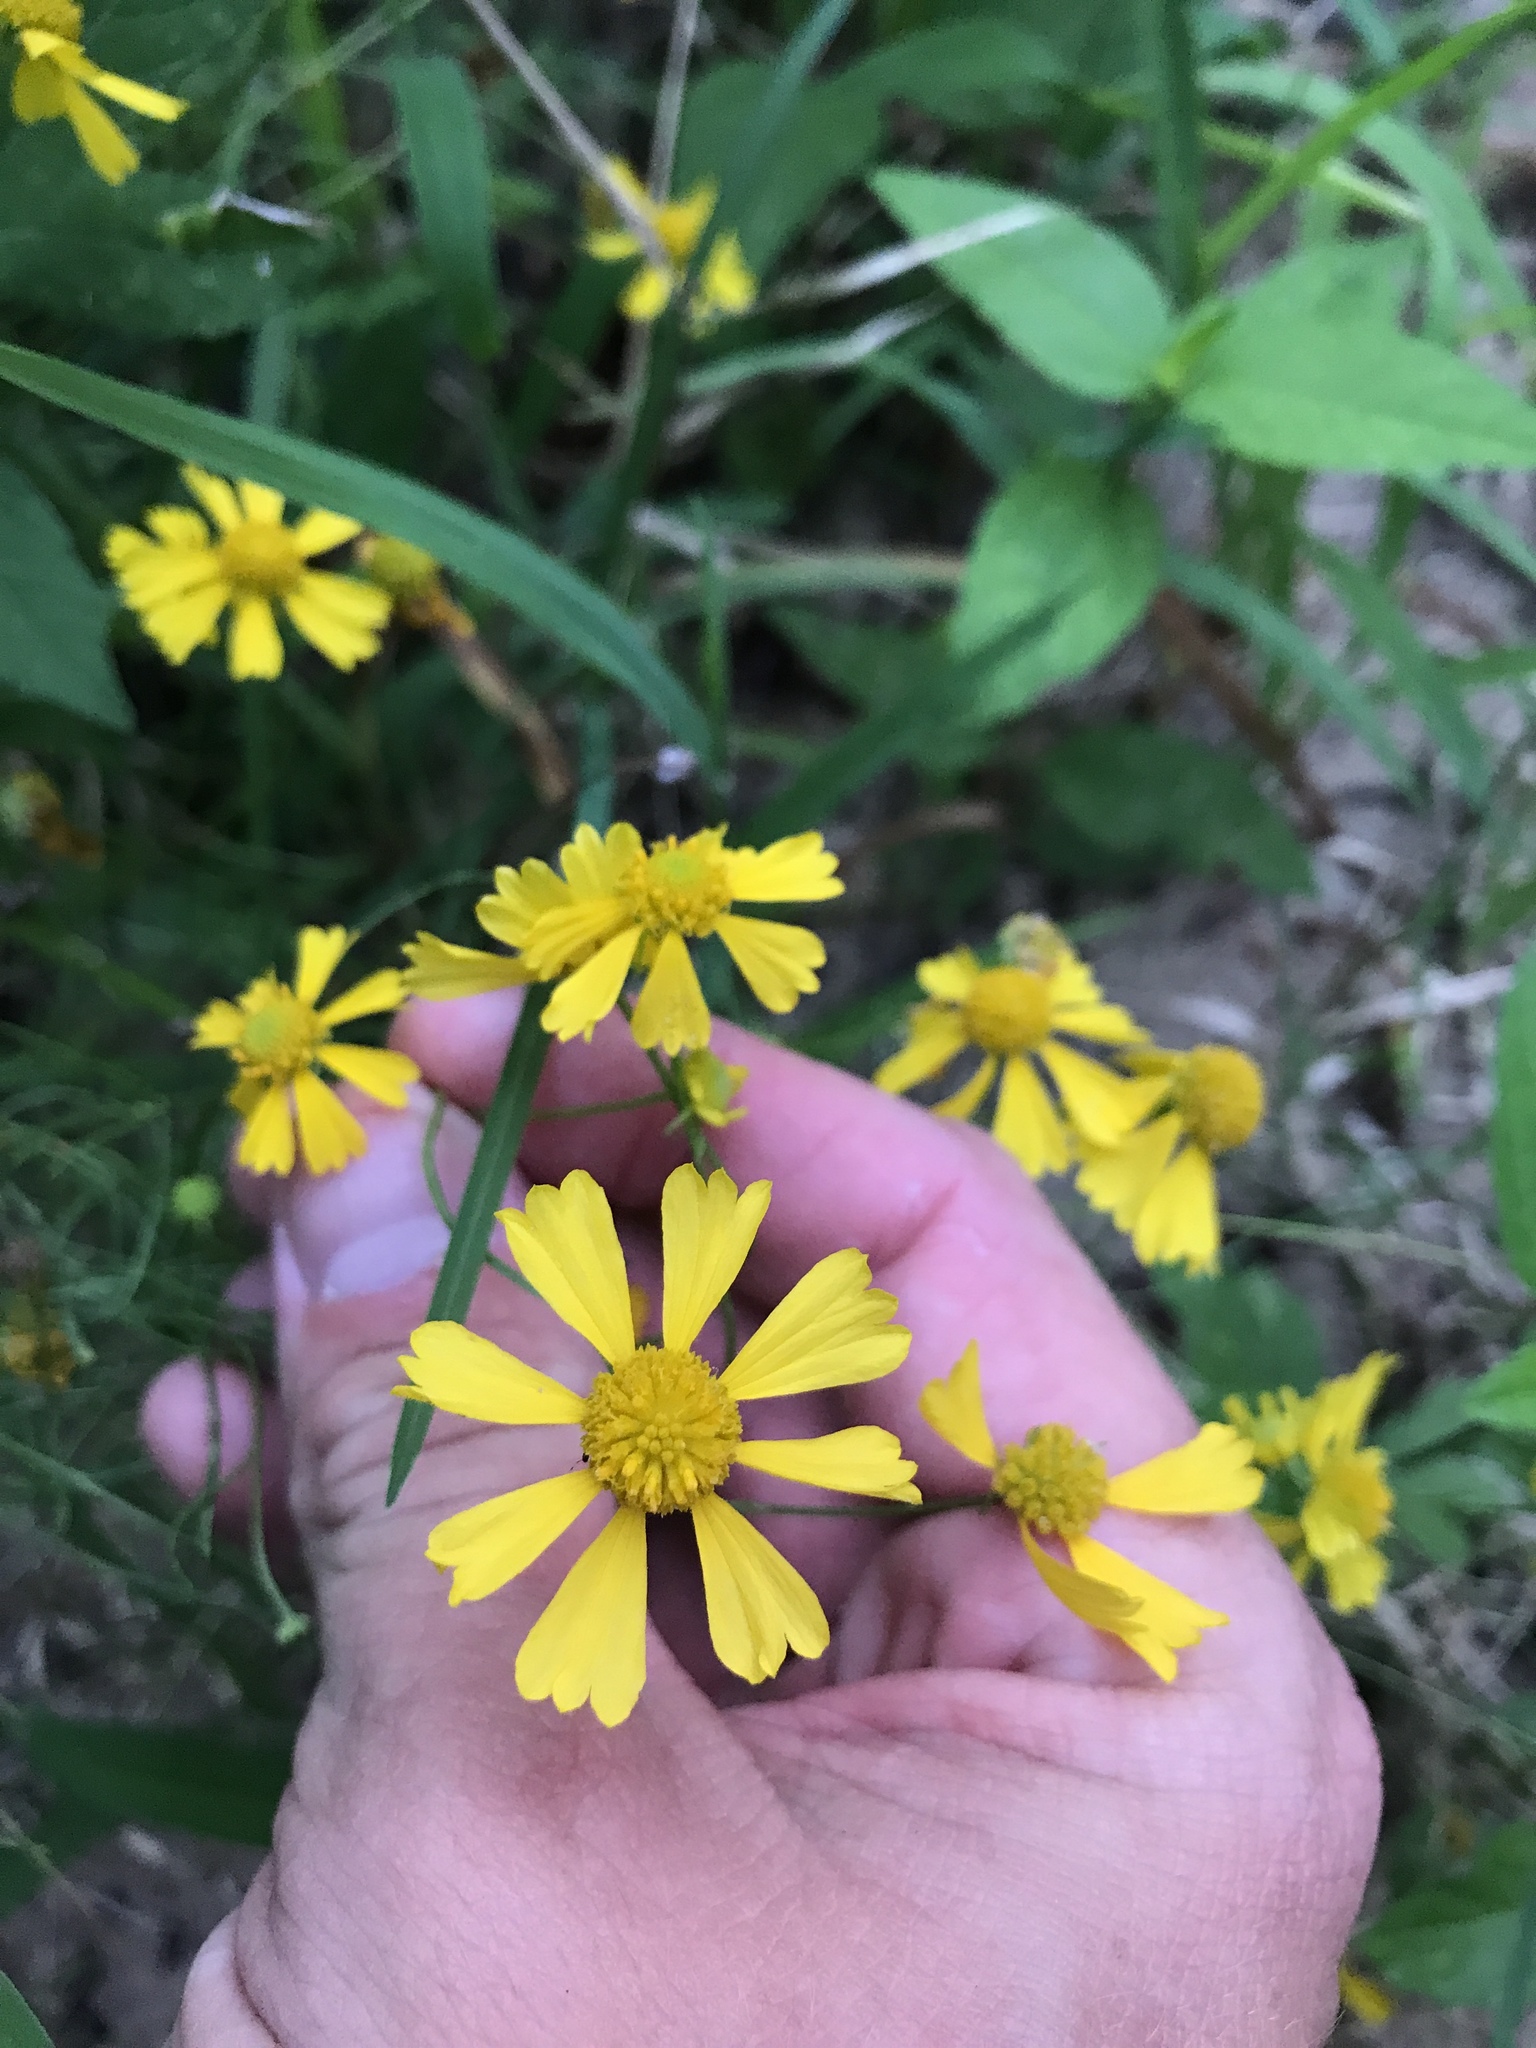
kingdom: Plantae
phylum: Tracheophyta
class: Magnoliopsida
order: Asterales
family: Asteraceae
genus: Helenium
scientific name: Helenium amarum
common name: Bitter sneezeweed
